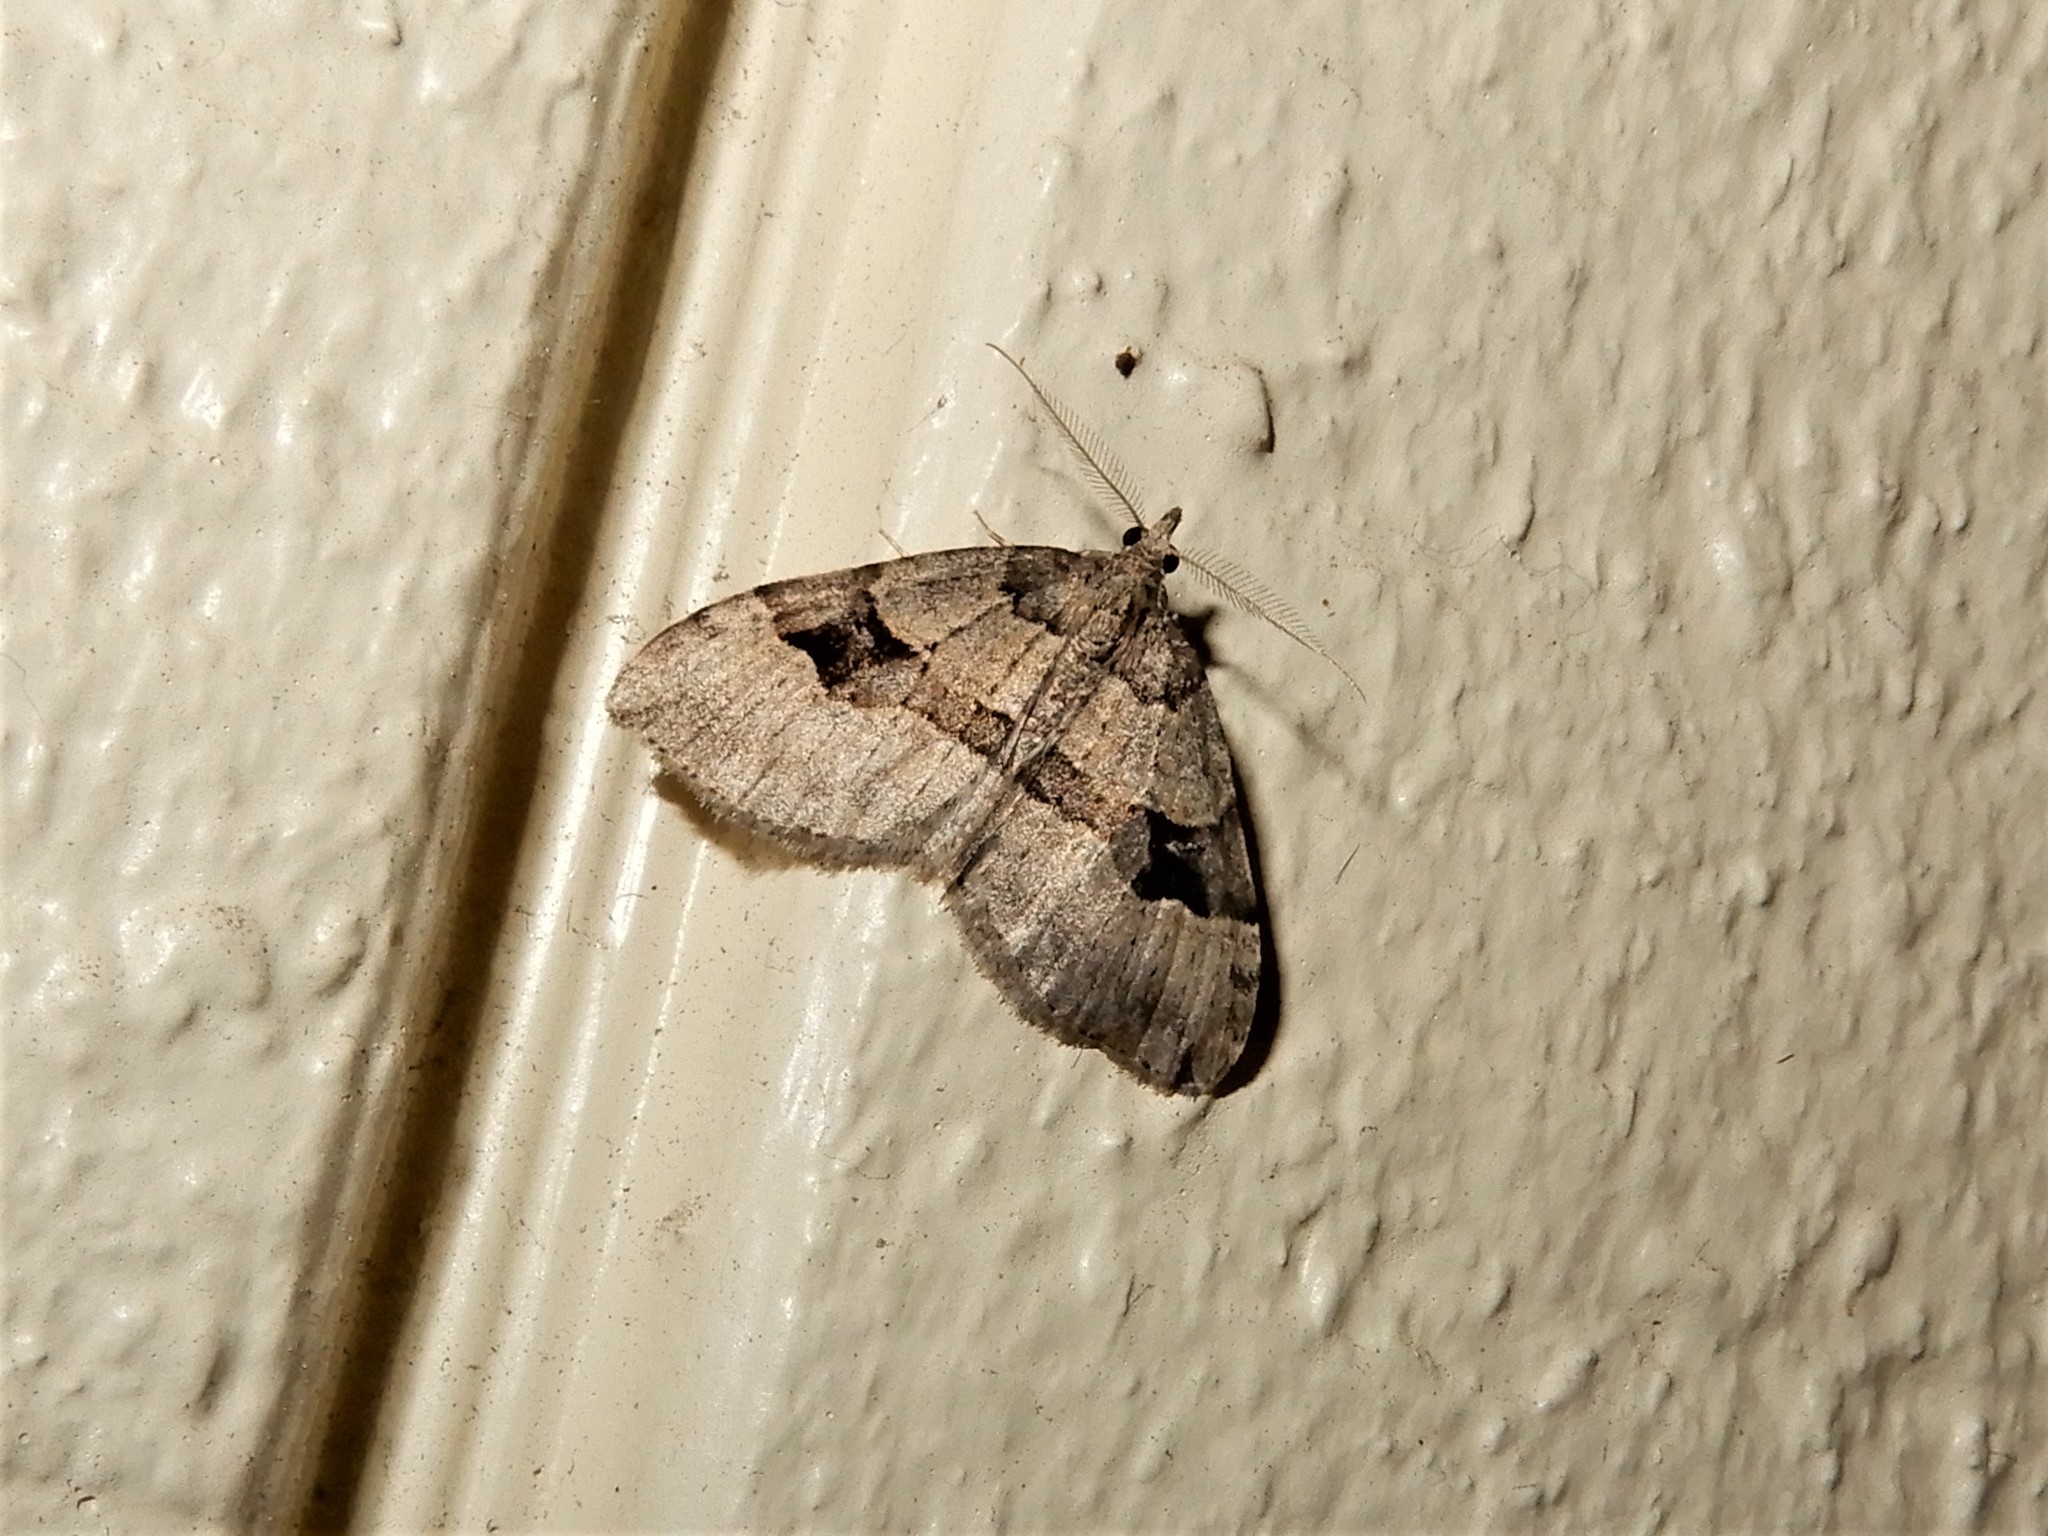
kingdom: Animalia
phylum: Arthropoda
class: Insecta
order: Lepidoptera
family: Geometridae
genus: Epyaxa
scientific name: Epyaxa rosearia
